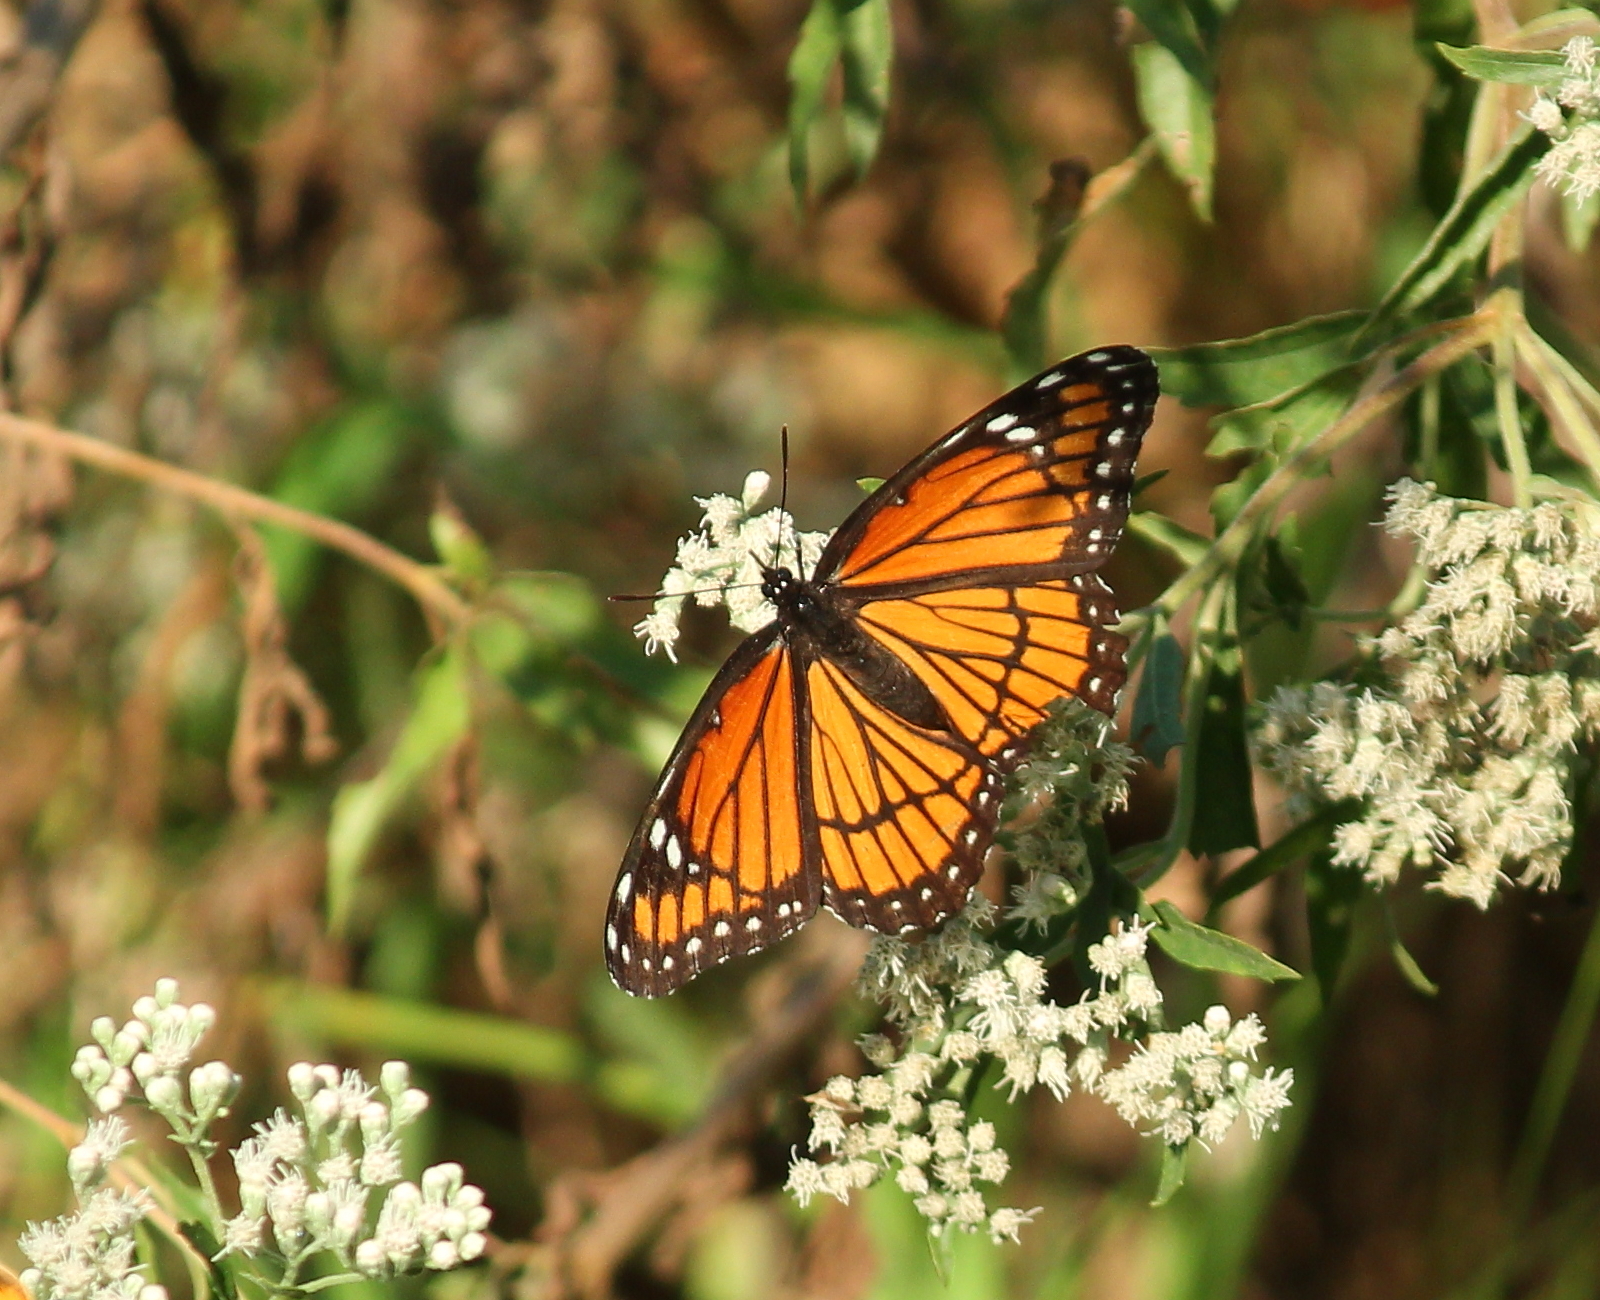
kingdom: Animalia
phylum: Arthropoda
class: Insecta
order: Lepidoptera
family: Nymphalidae
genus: Limenitis
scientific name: Limenitis archippus
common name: Viceroy
